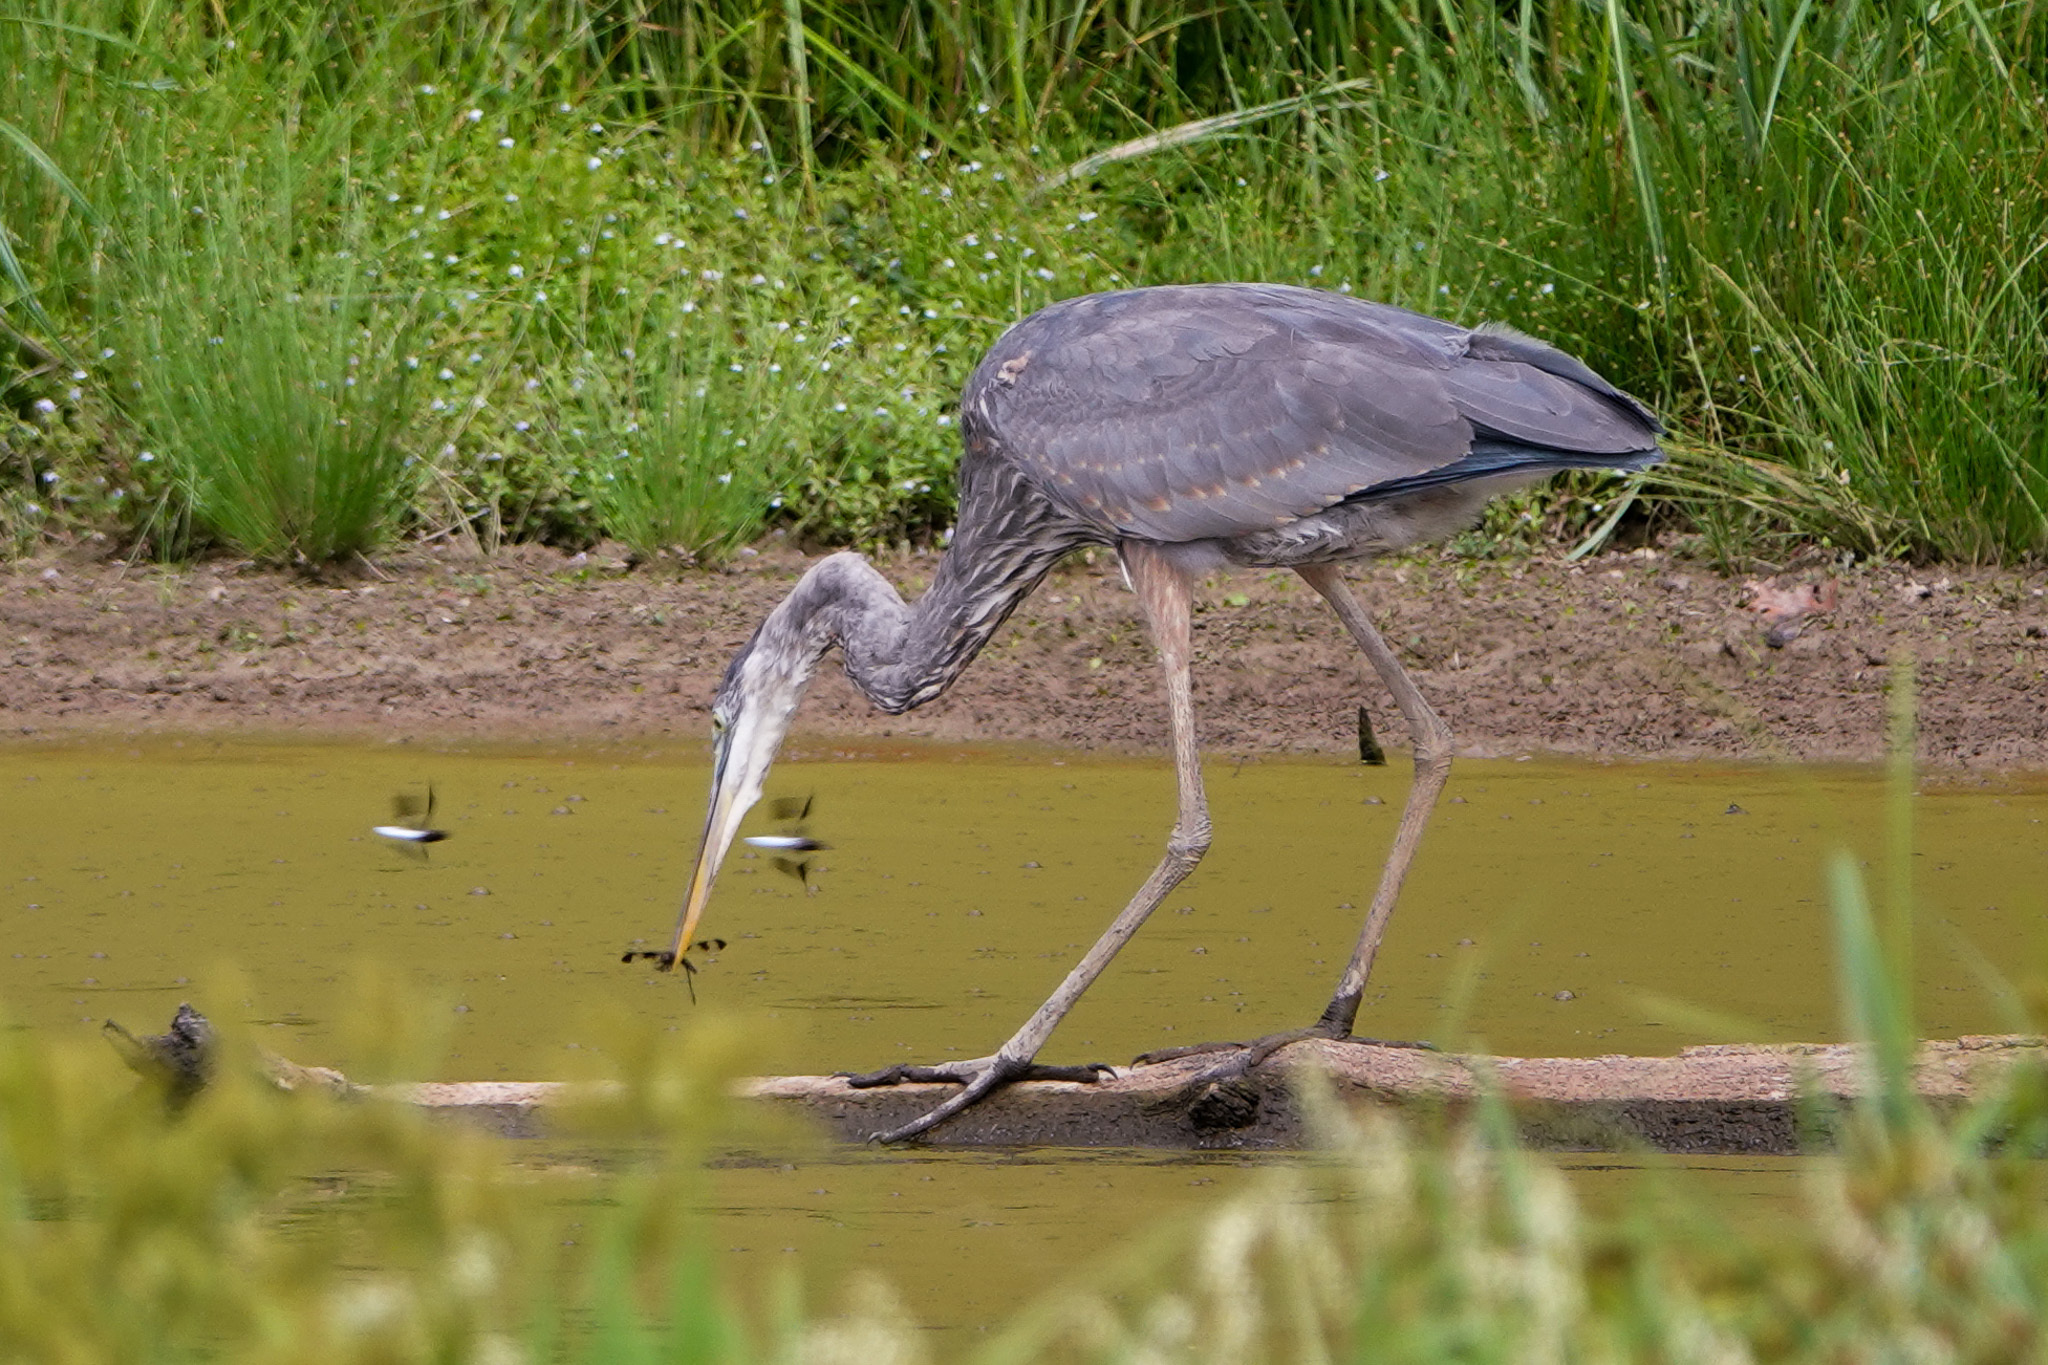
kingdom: Animalia
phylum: Chordata
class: Aves
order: Pelecaniformes
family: Ardeidae
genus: Ardea
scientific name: Ardea herodias
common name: Great blue heron
